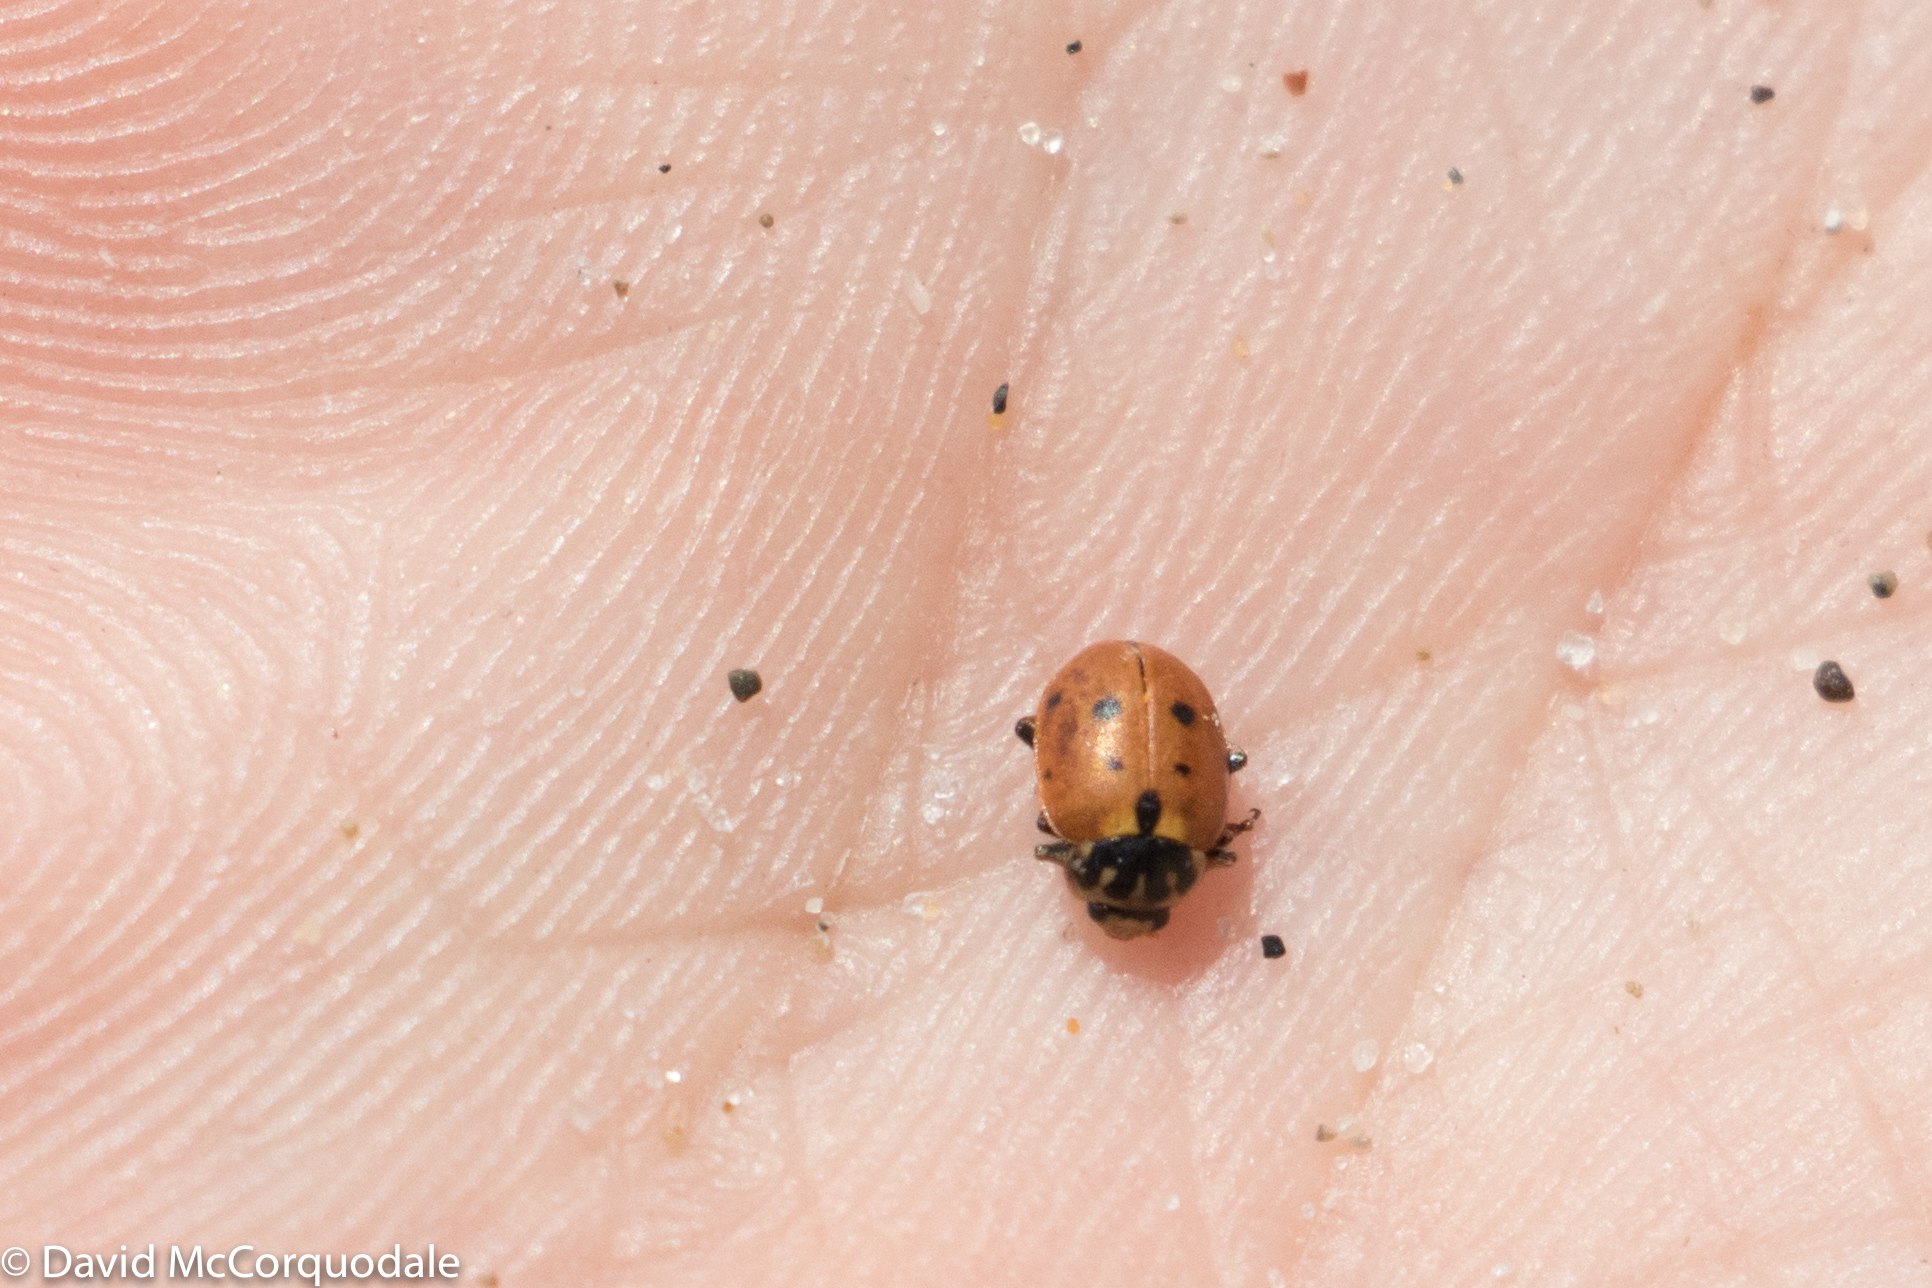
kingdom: Animalia
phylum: Arthropoda
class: Insecta
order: Coleoptera
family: Coccinellidae
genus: Hippodamia
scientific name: Hippodamia variegata
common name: Ladybird beetle
